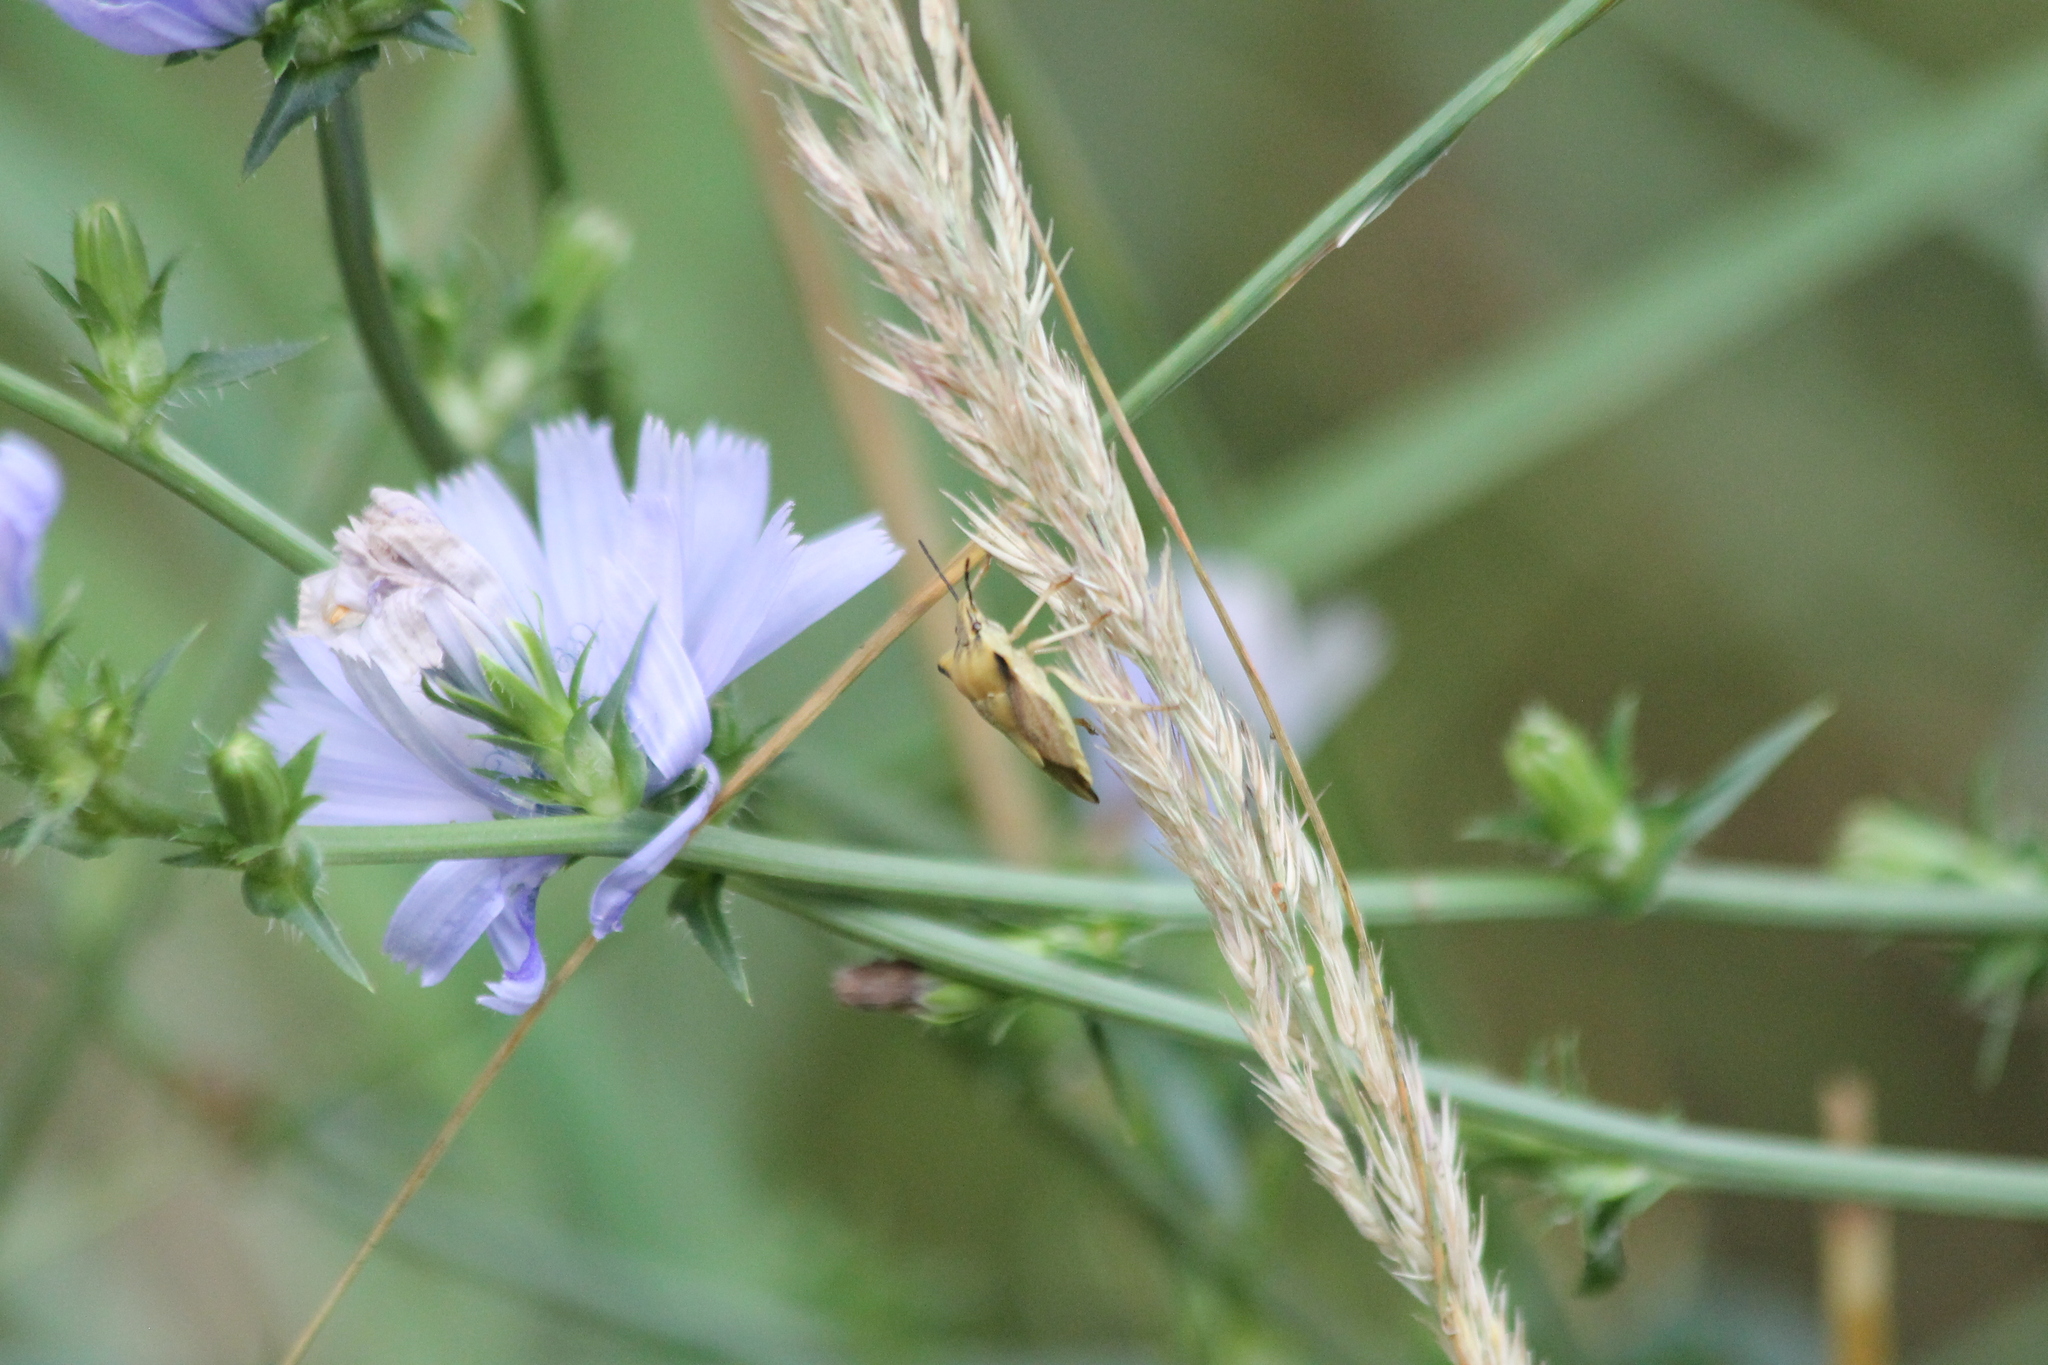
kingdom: Animalia
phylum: Arthropoda
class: Insecta
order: Hemiptera
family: Pentatomidae
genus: Carpocoris
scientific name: Carpocoris fuscispinus
